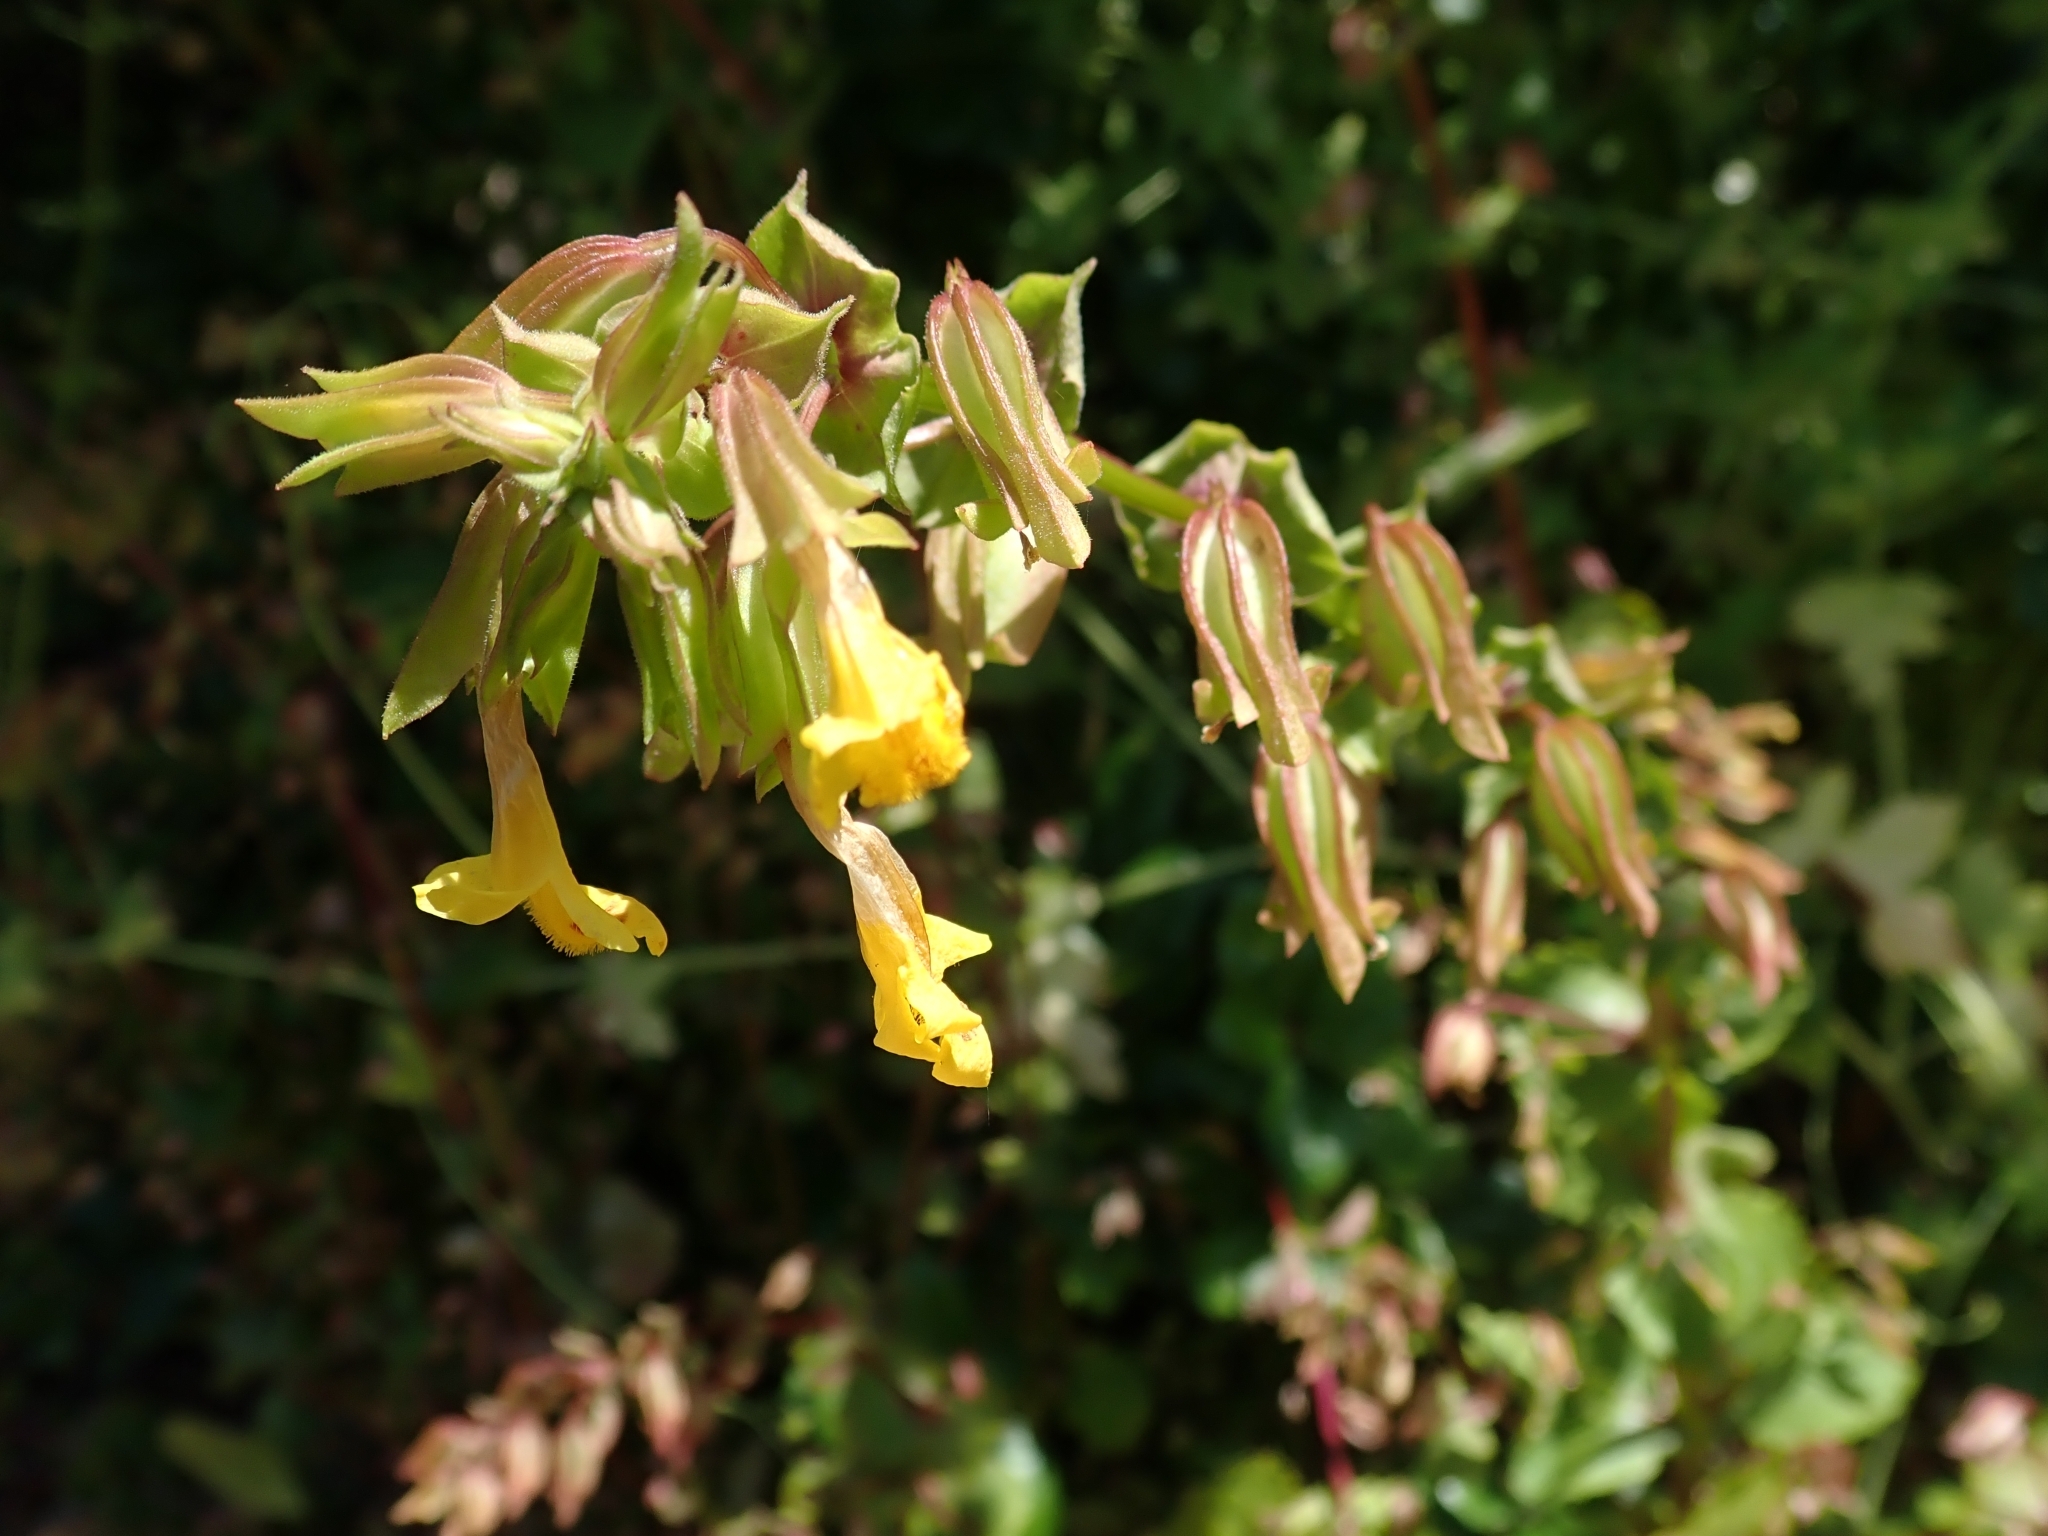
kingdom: Plantae
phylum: Tracheophyta
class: Magnoliopsida
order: Lamiales
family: Phrymaceae
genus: Erythranthe
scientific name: Erythranthe nasuta
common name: Sooke monkeyflower
